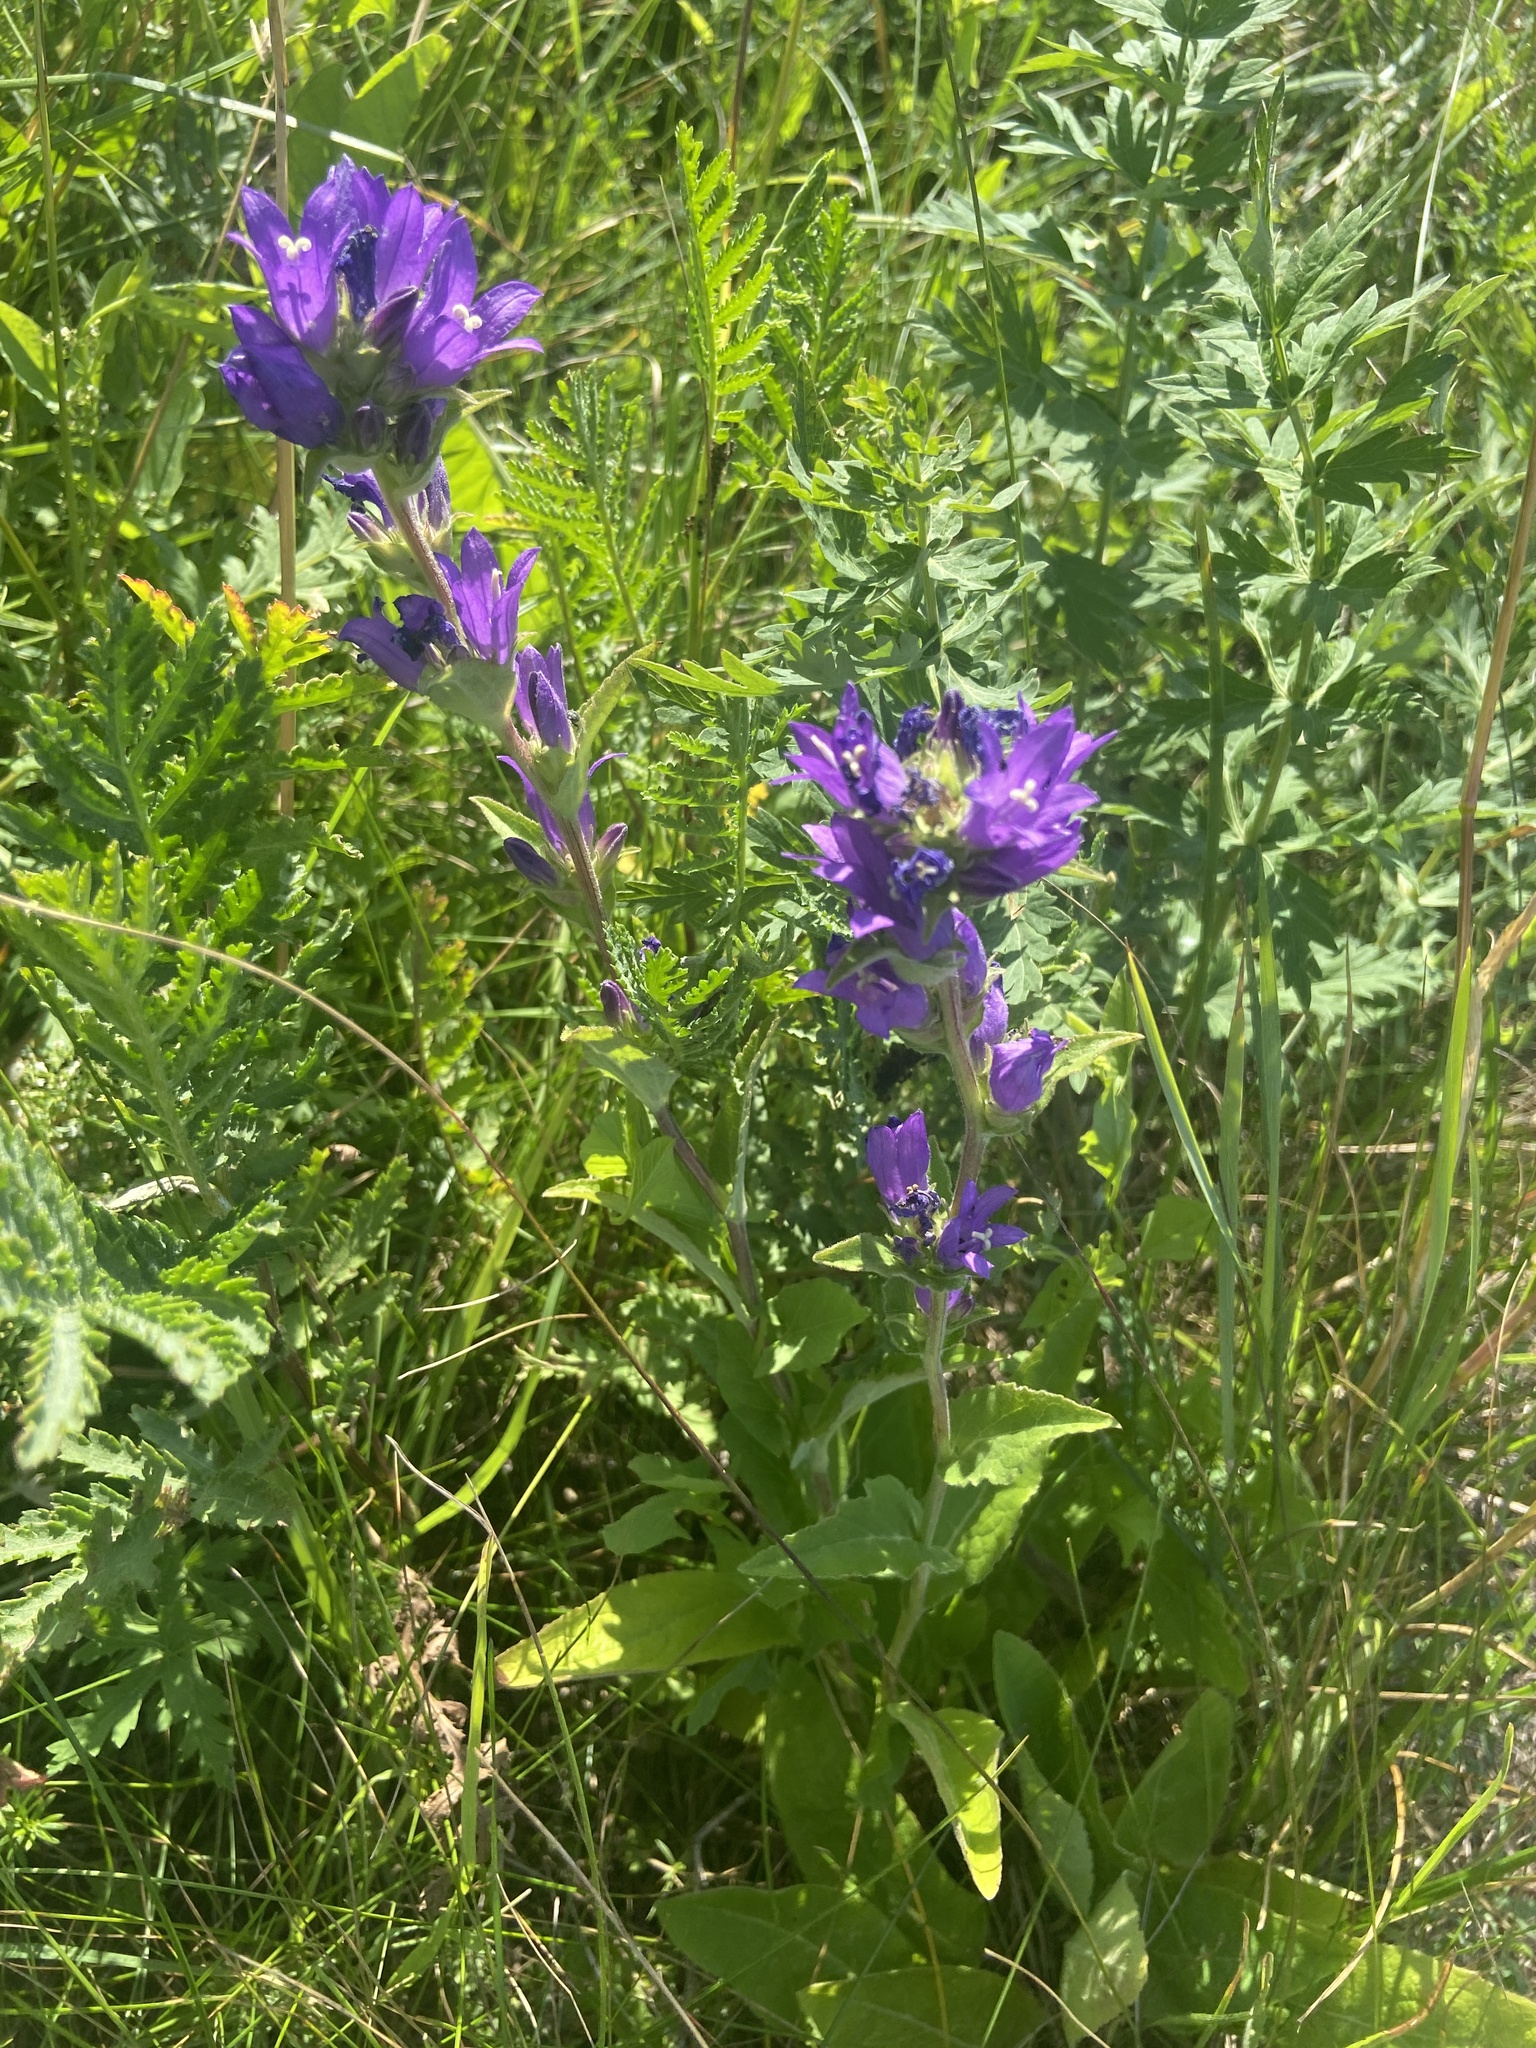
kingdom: Plantae
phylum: Tracheophyta
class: Magnoliopsida
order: Asterales
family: Campanulaceae
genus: Campanula
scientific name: Campanula glomerata
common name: Clustered bellflower
